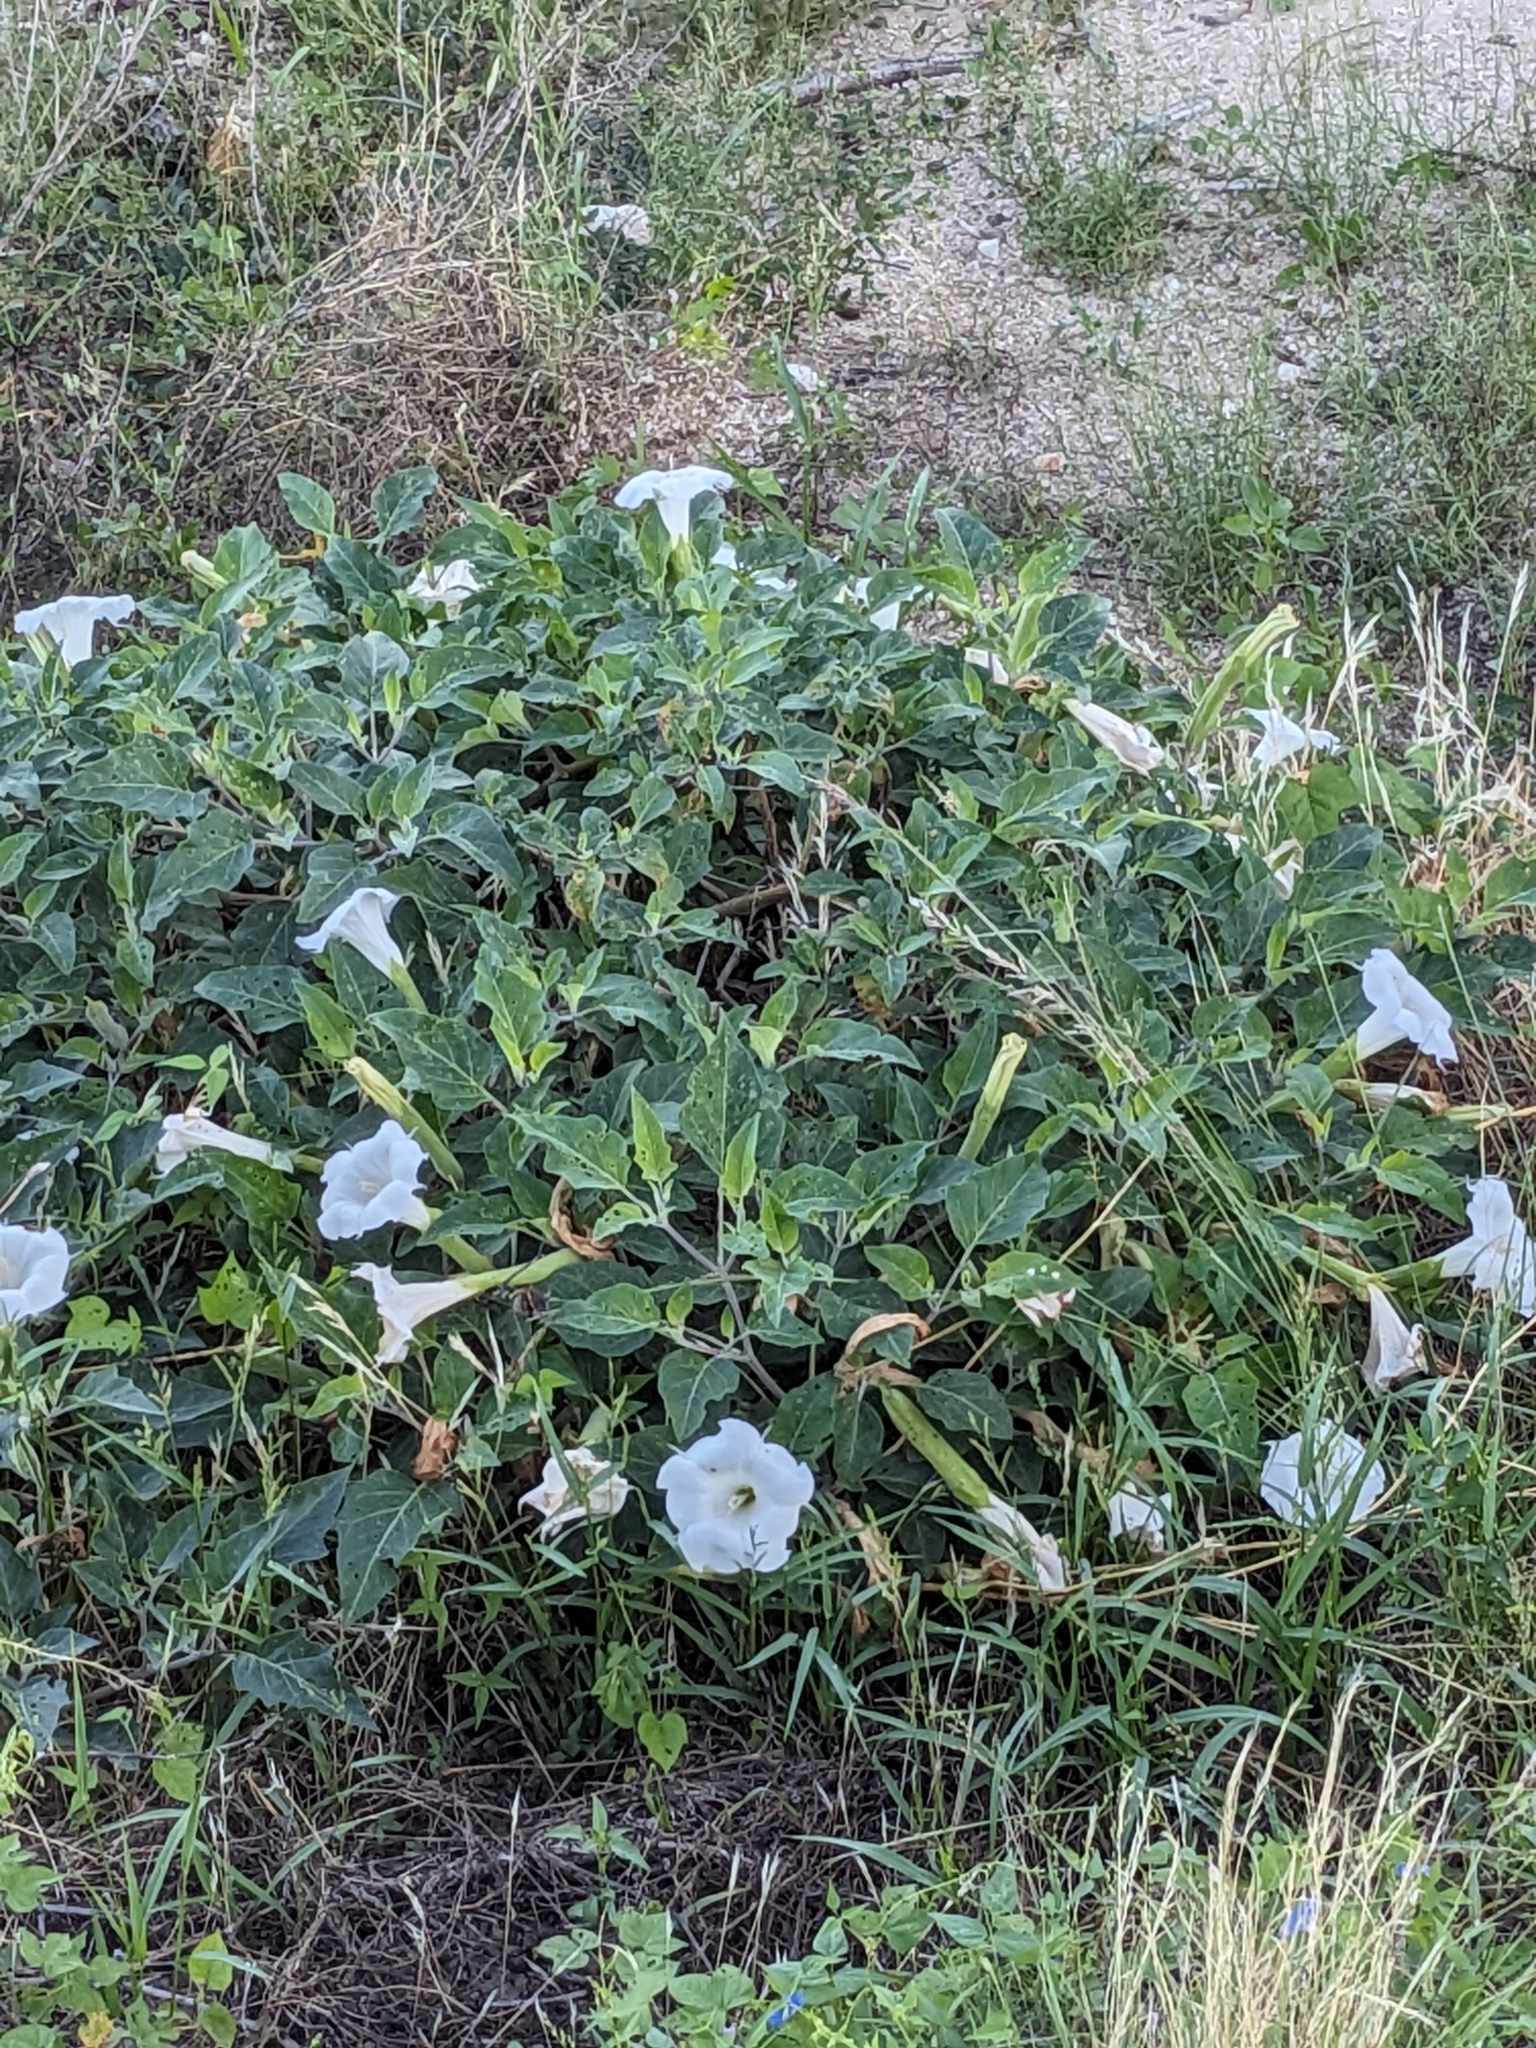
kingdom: Plantae
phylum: Tracheophyta
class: Magnoliopsida
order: Solanales
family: Solanaceae
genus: Datura
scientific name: Datura wrightii
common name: Sacred thorn-apple
